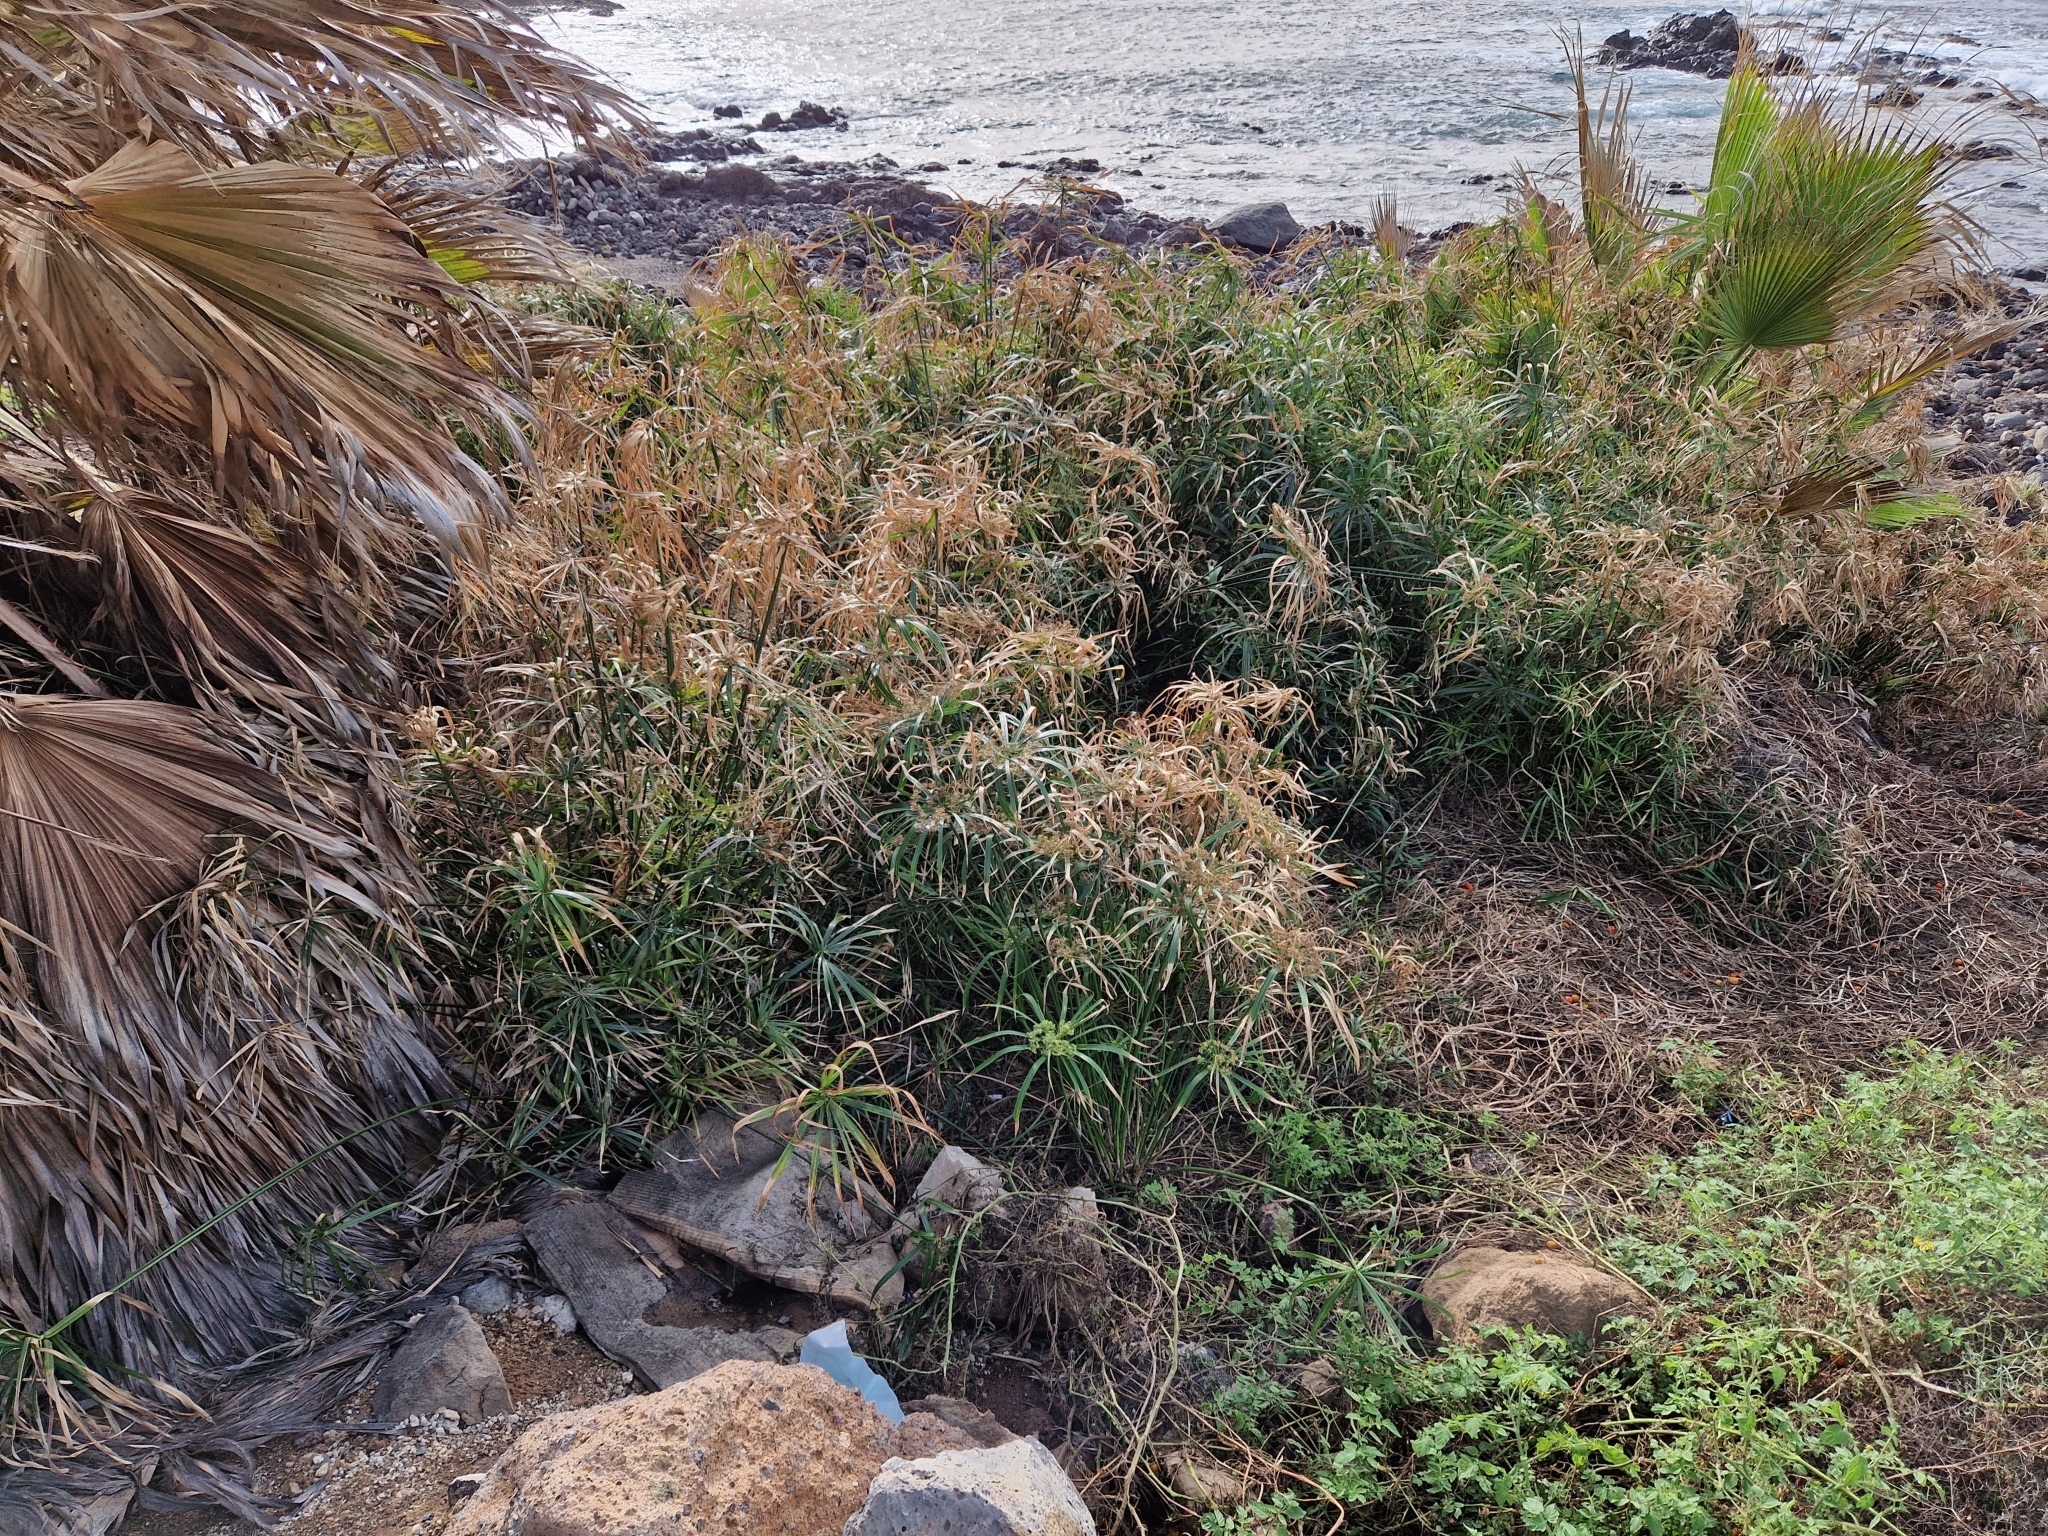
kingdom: Plantae
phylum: Tracheophyta
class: Liliopsida
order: Poales
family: Cyperaceae
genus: Cyperus
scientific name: Cyperus alternifolius
